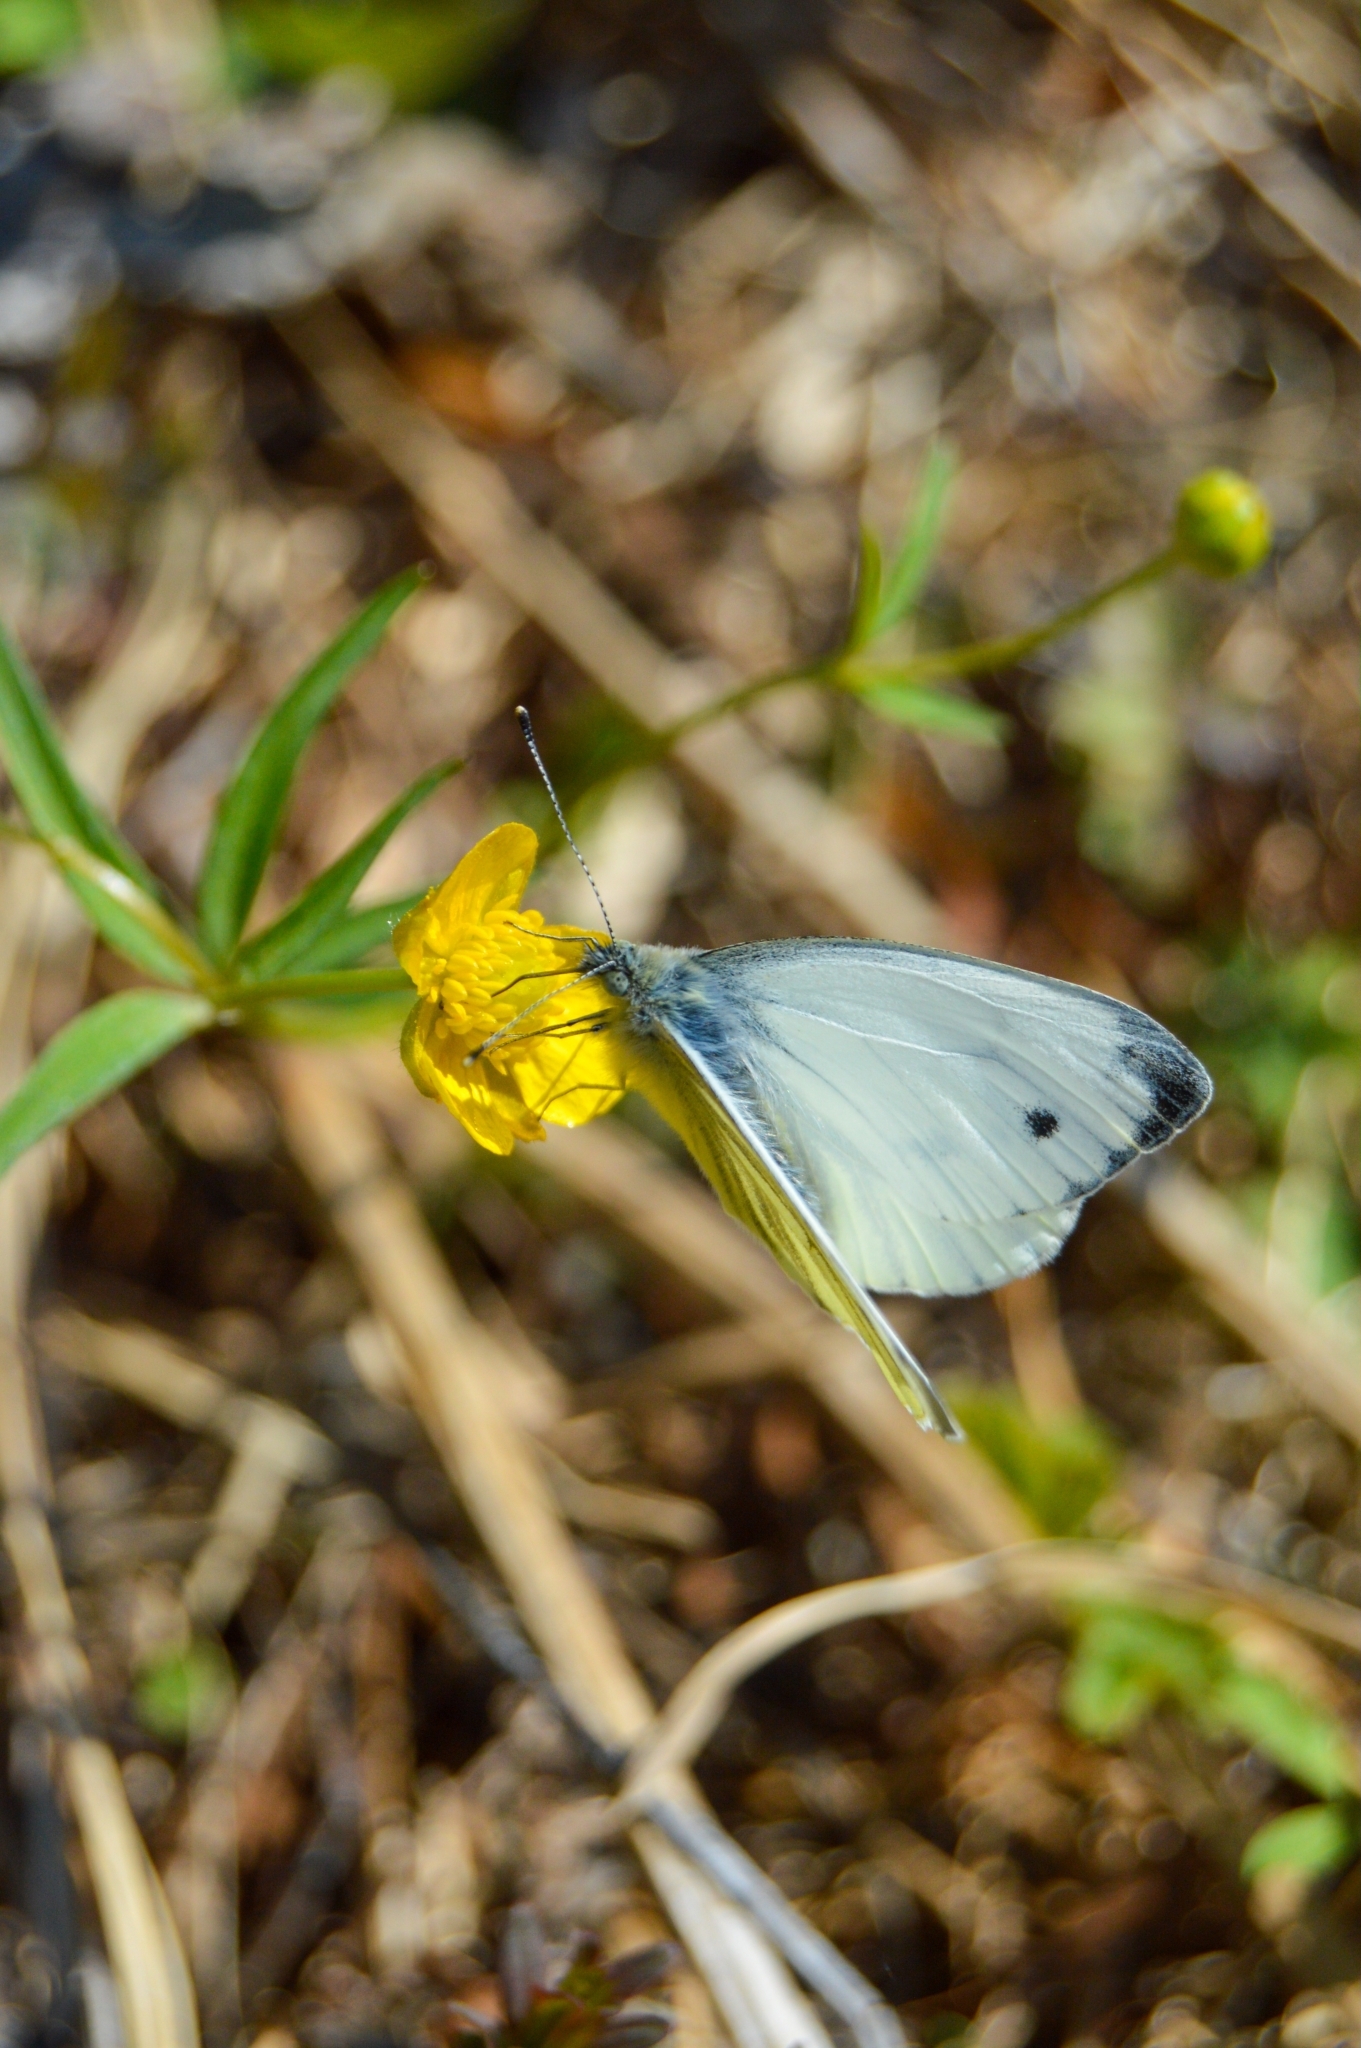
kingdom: Animalia
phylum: Arthropoda
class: Insecta
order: Lepidoptera
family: Pieridae
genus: Pieris
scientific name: Pieris napi
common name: Green-veined white
